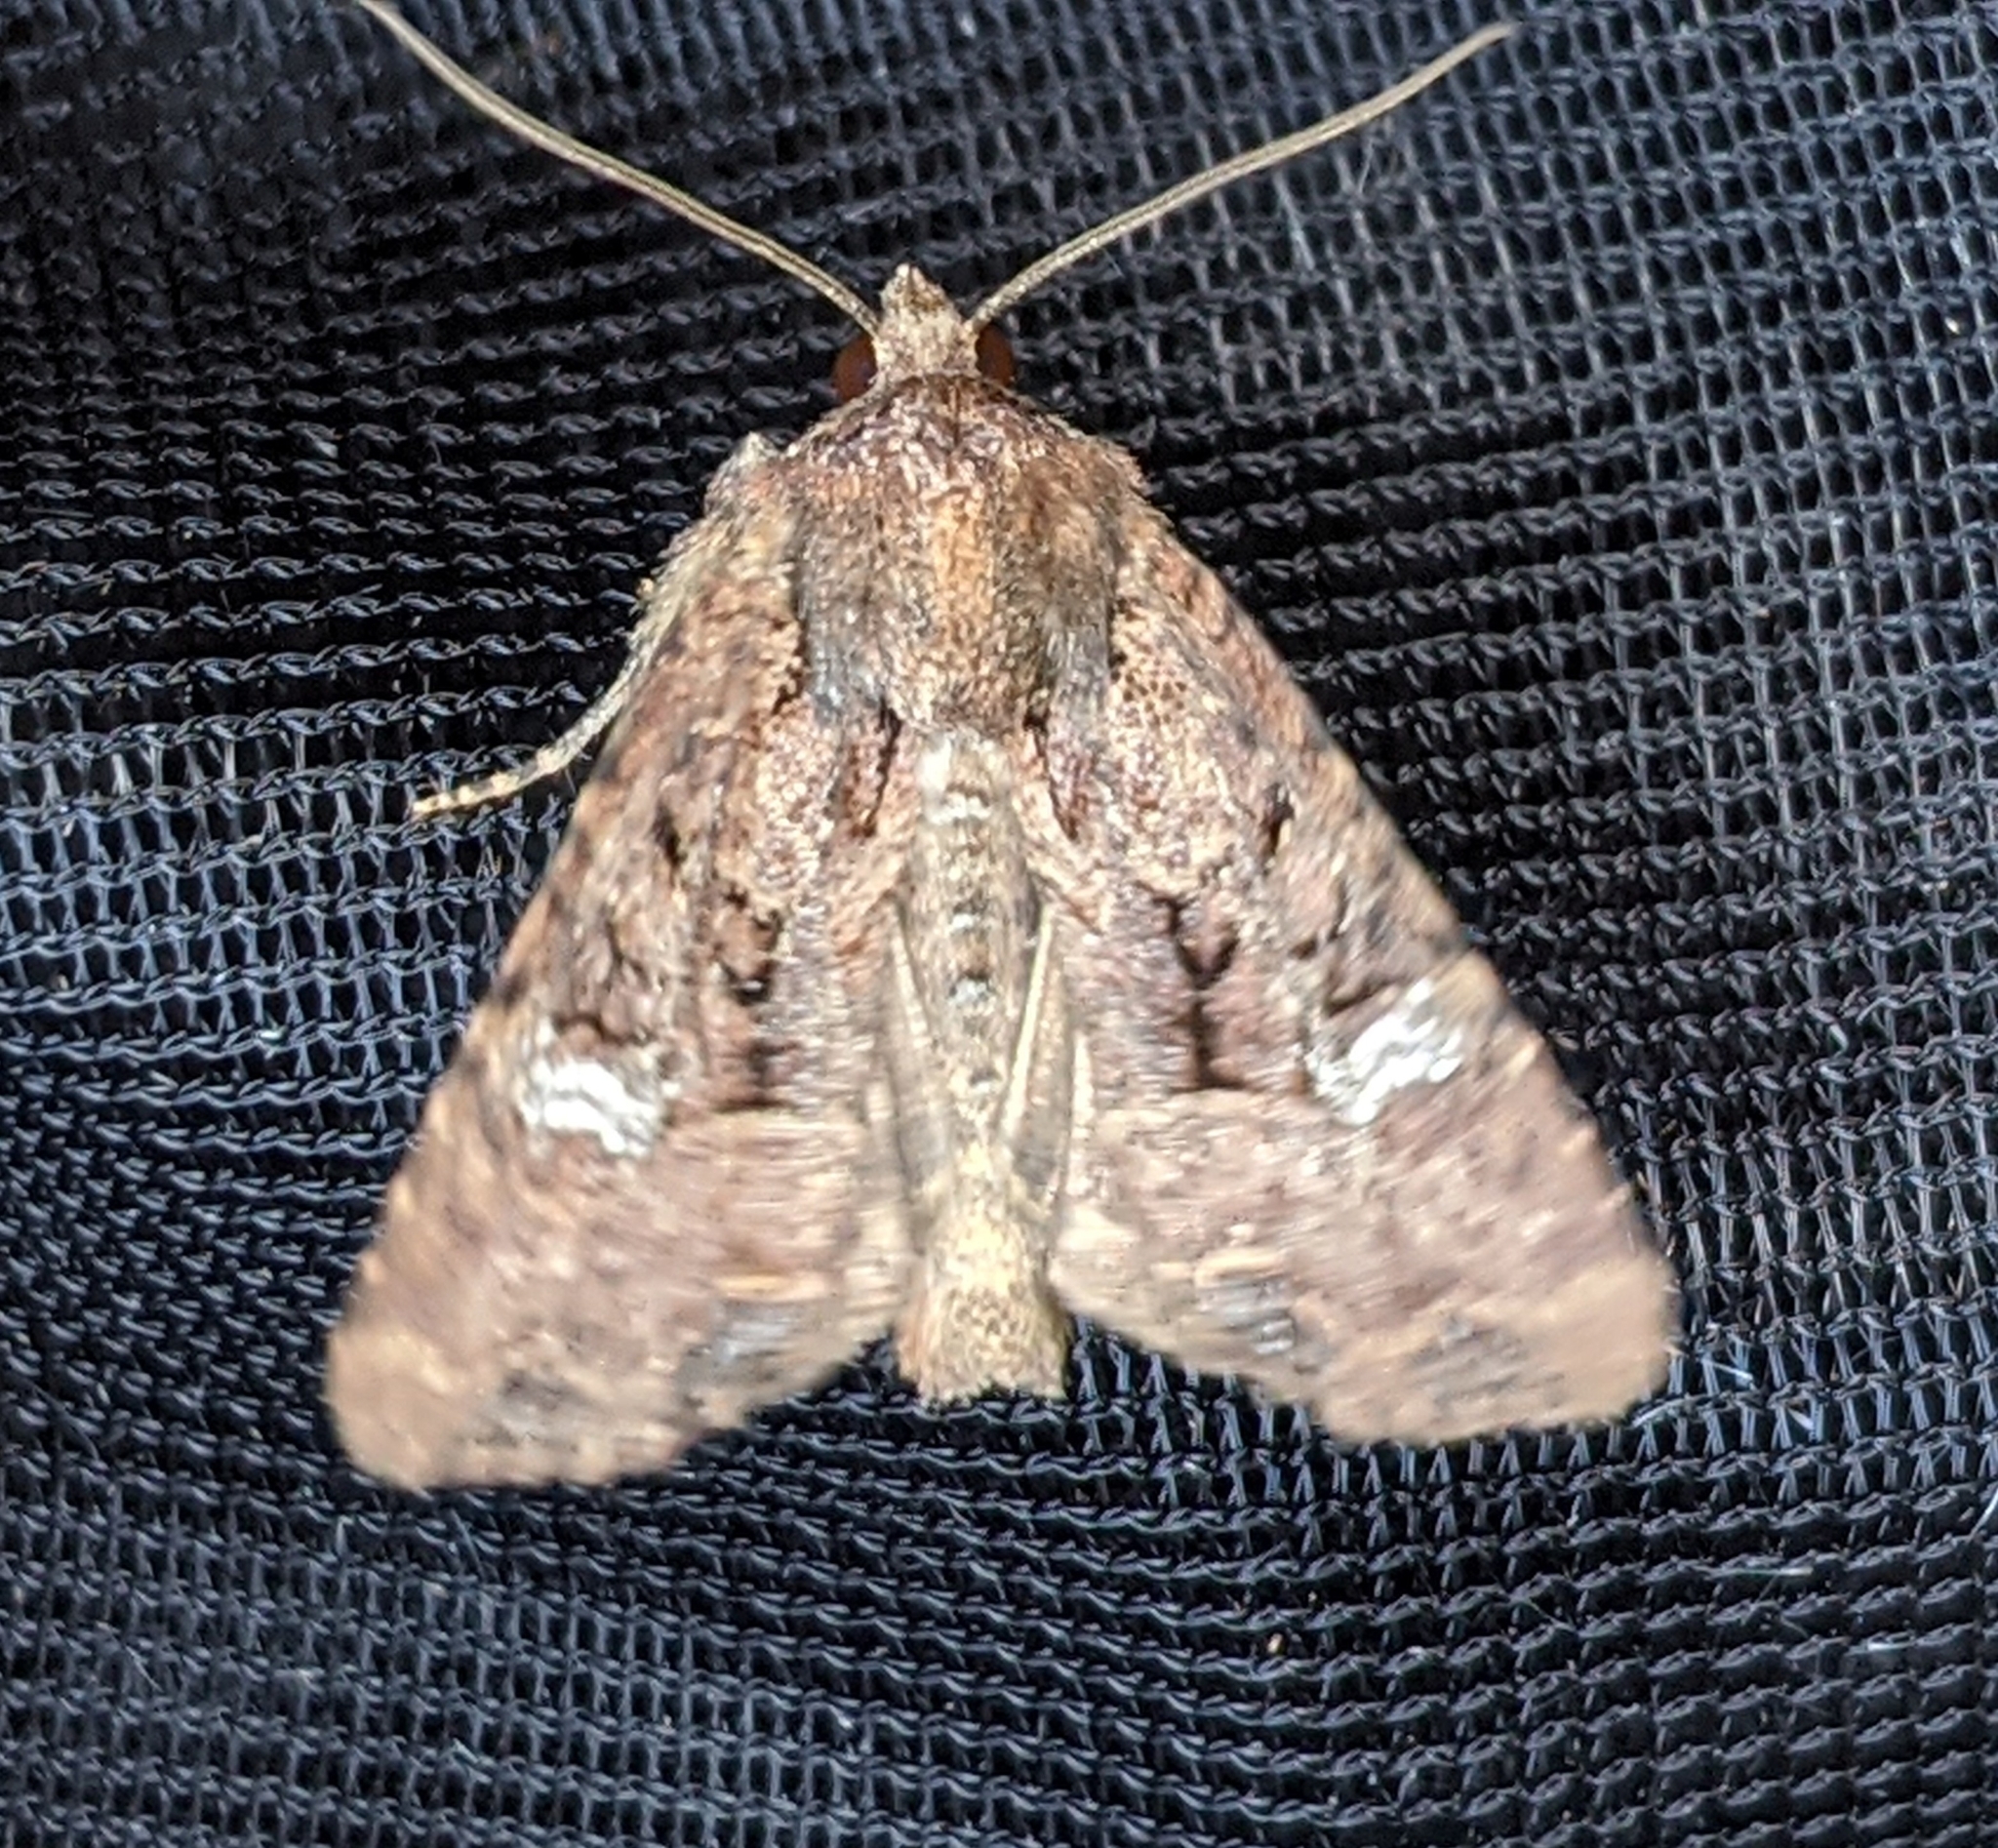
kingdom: Animalia
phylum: Arthropoda
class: Insecta
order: Lepidoptera
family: Noctuidae
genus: Mesapamea
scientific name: Mesapamea secalis
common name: Common rustic
